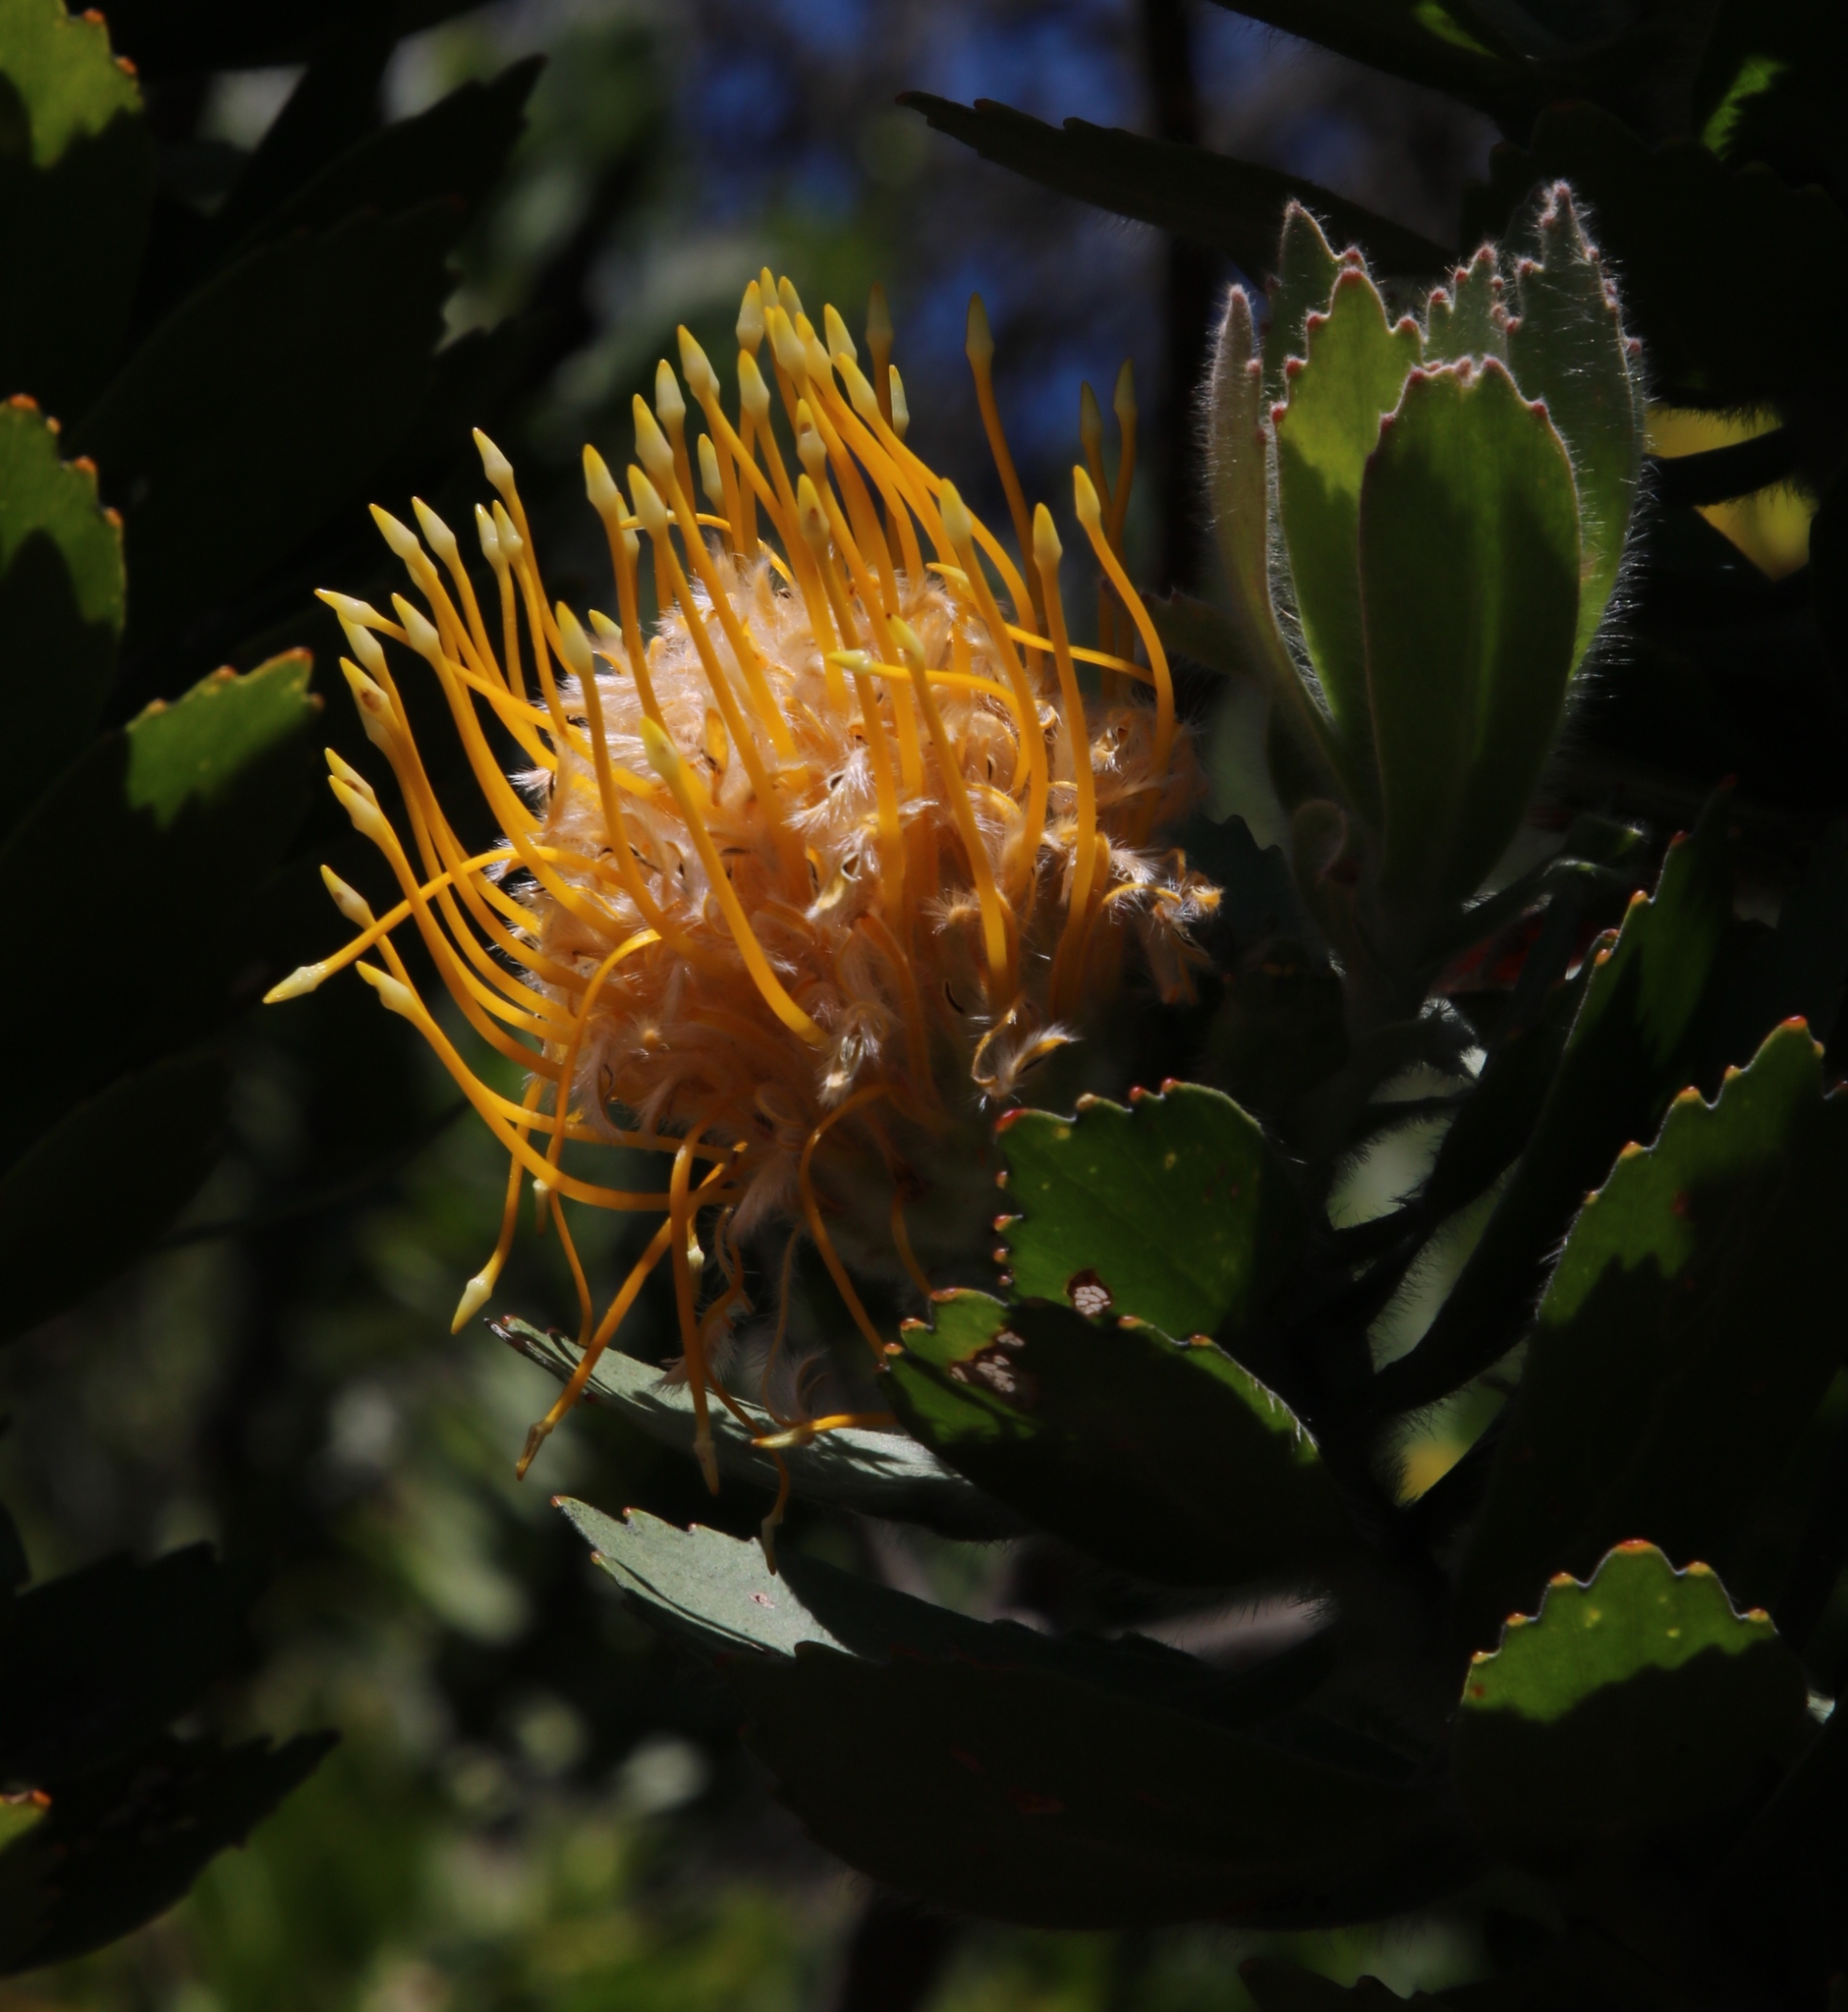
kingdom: Plantae
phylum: Tracheophyta
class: Magnoliopsida
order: Proteales
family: Proteaceae
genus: Leucospermum
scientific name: Leucospermum conocarpodendron
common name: Tree pincushion
